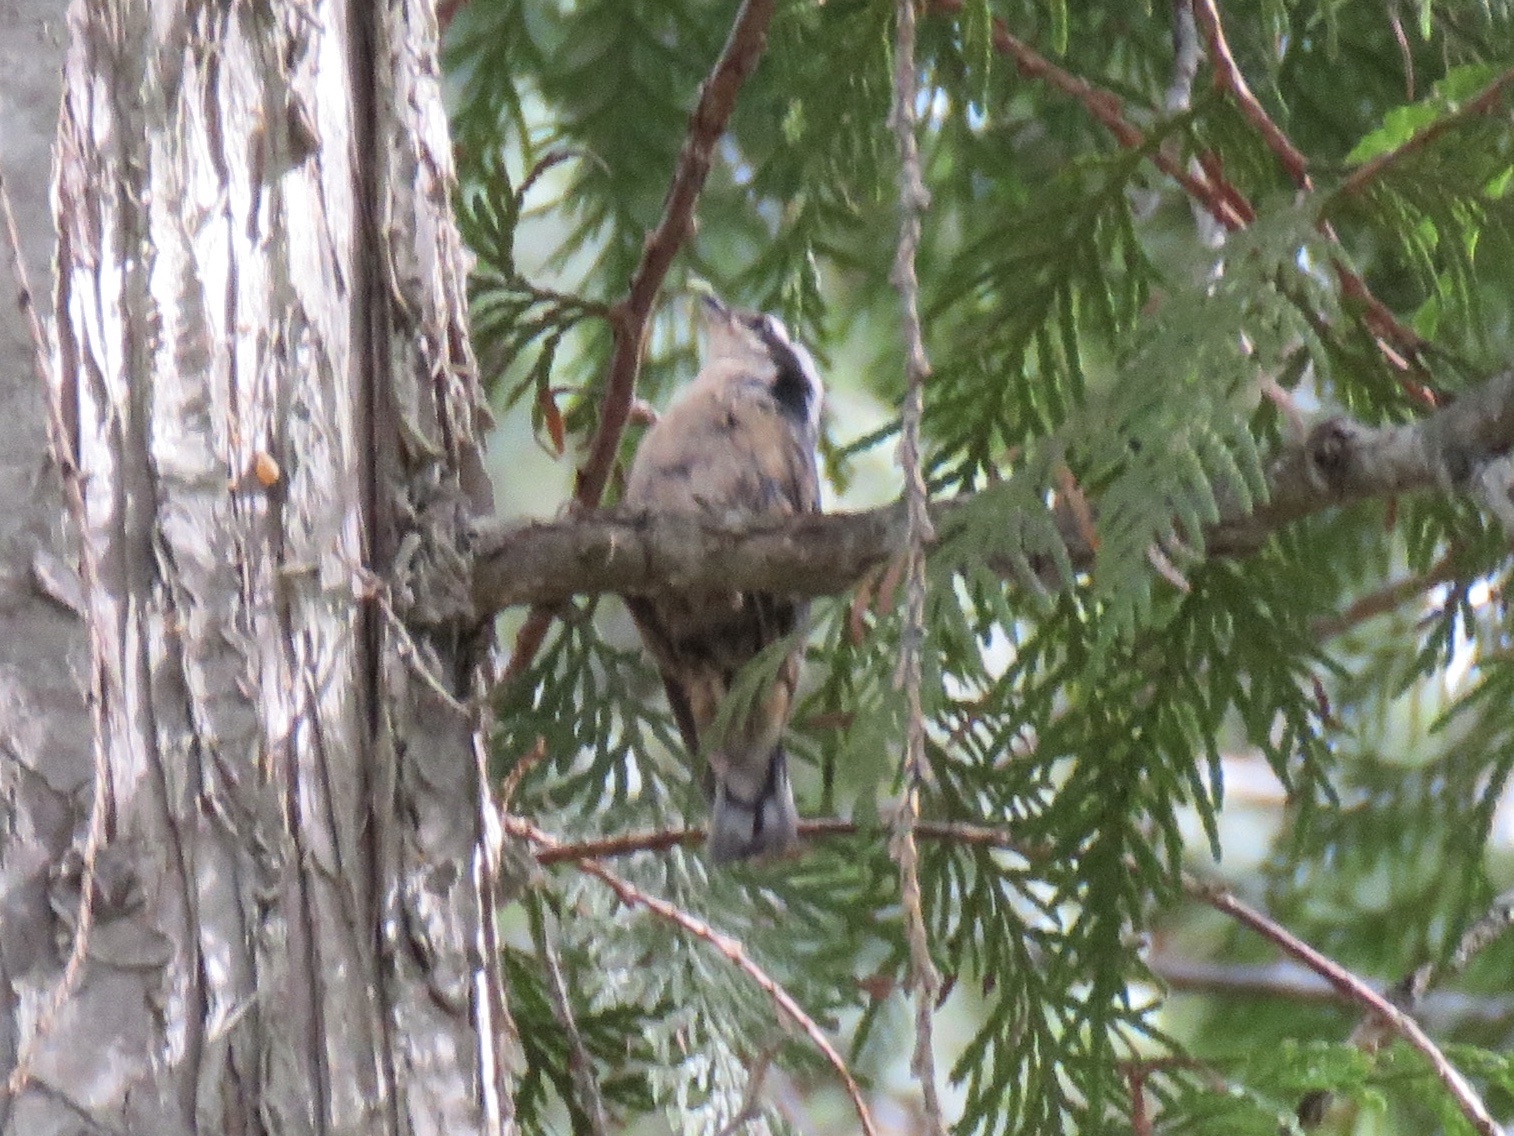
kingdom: Animalia
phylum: Chordata
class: Aves
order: Passeriformes
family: Sittidae
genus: Sitta
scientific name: Sitta canadensis
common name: Red-breasted nuthatch
